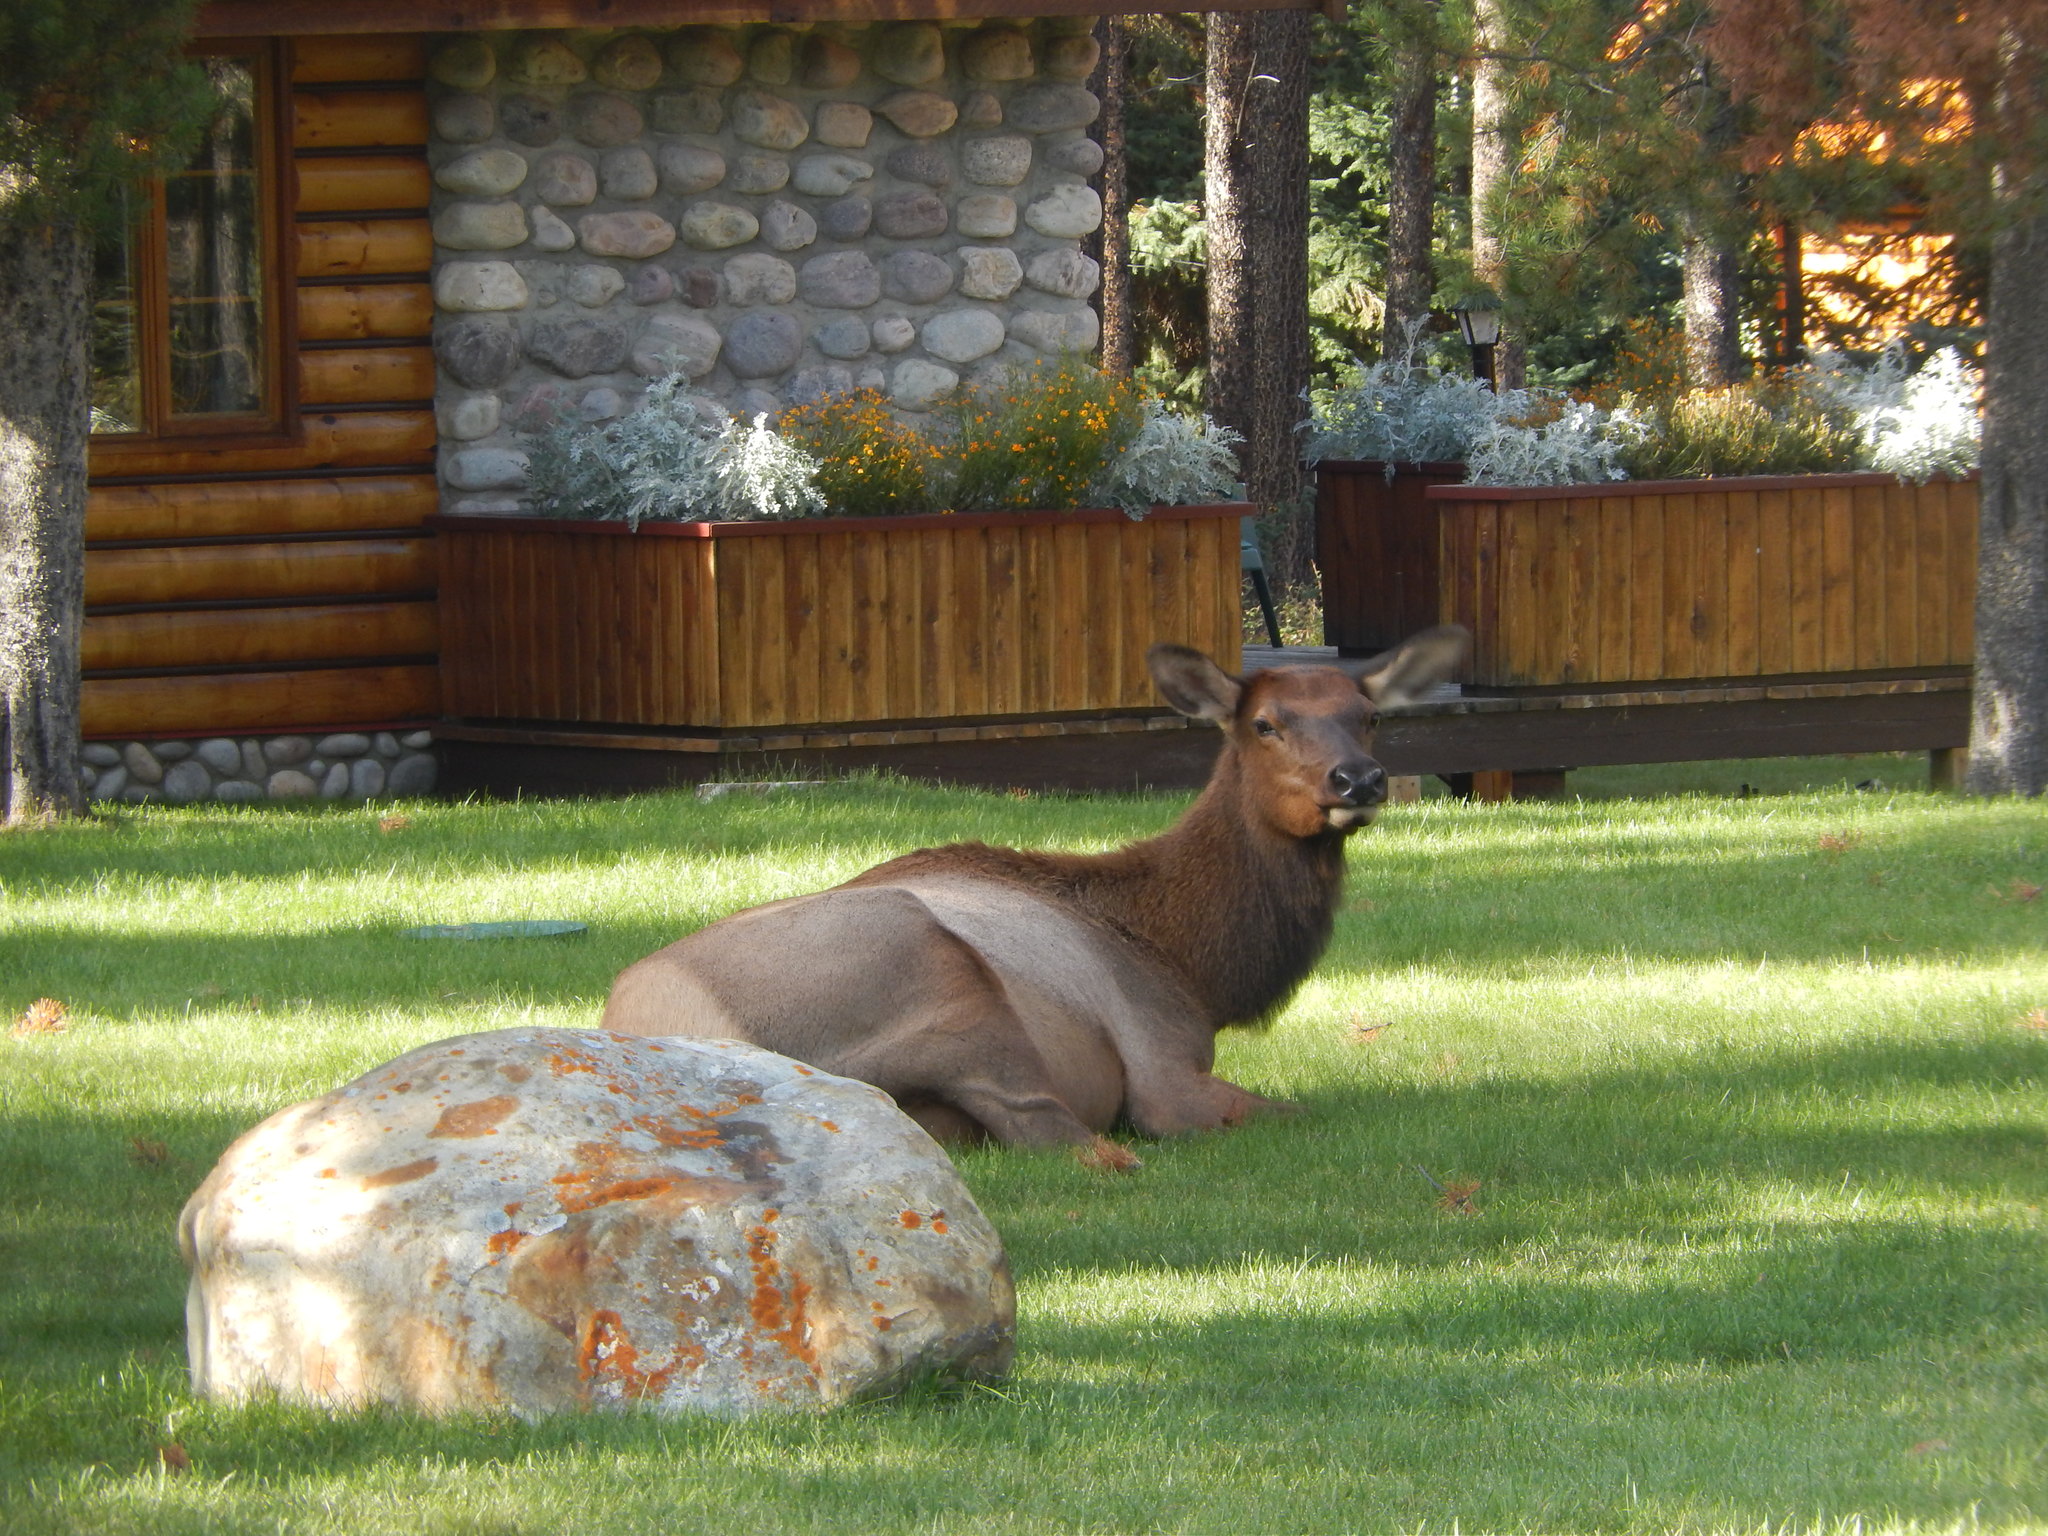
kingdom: Animalia
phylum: Chordata
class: Mammalia
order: Artiodactyla
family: Cervidae
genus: Cervus
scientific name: Cervus elaphus
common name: Red deer
